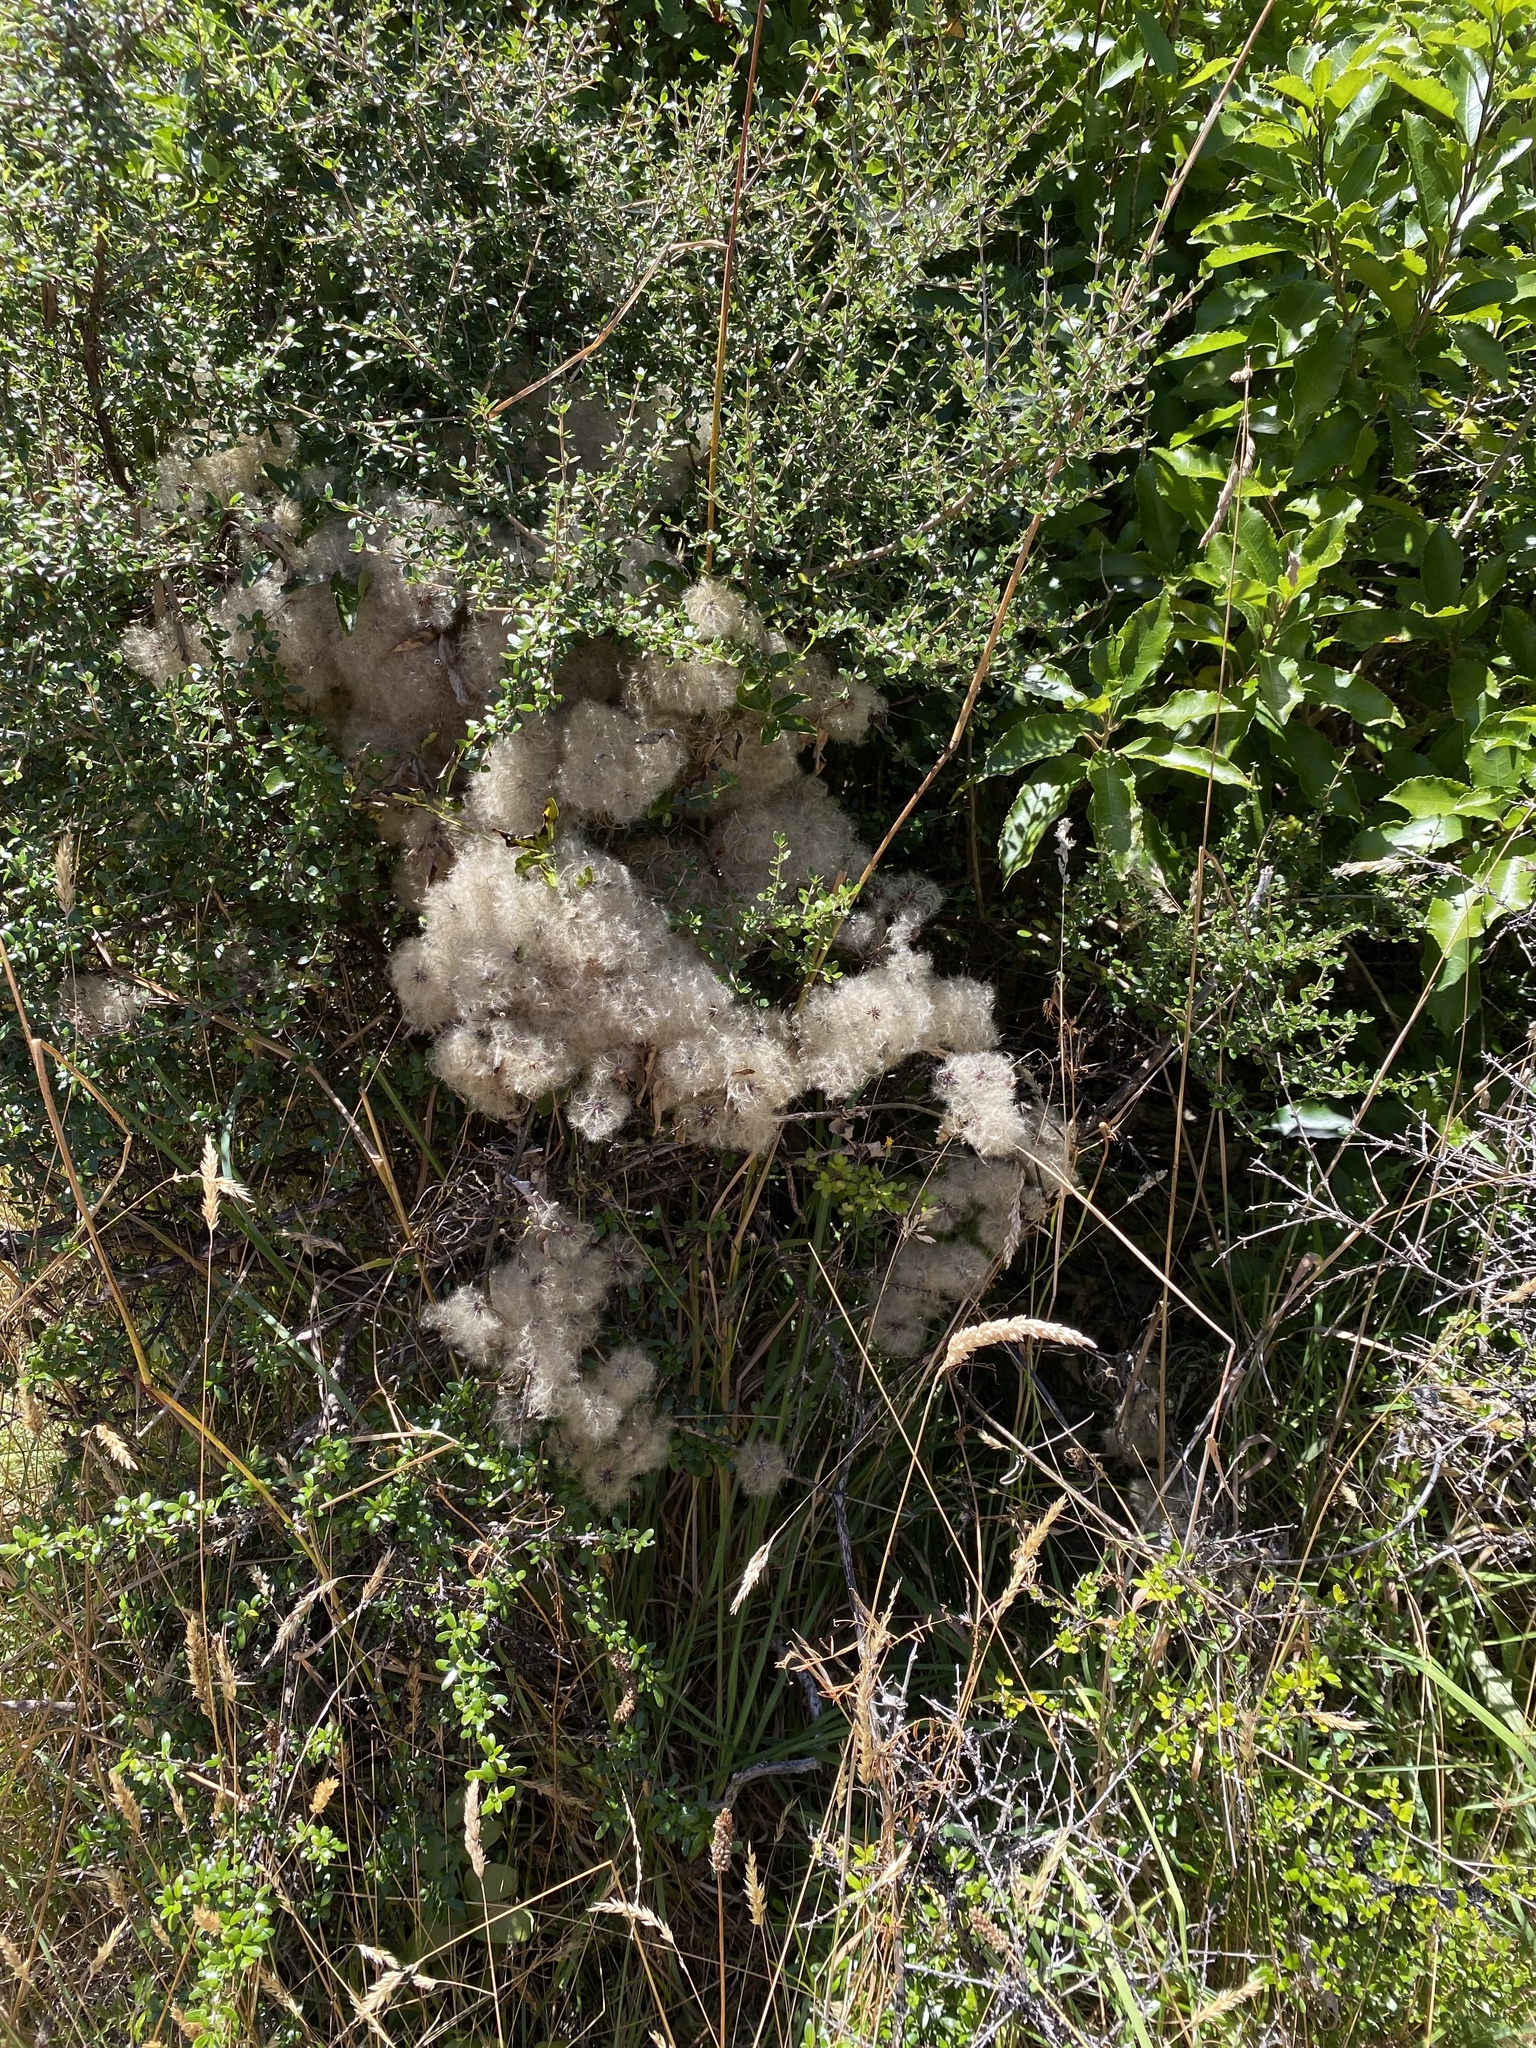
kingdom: Plantae
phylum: Tracheophyta
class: Magnoliopsida
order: Ranunculales
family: Ranunculaceae
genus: Clematis
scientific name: Clematis forsteri
